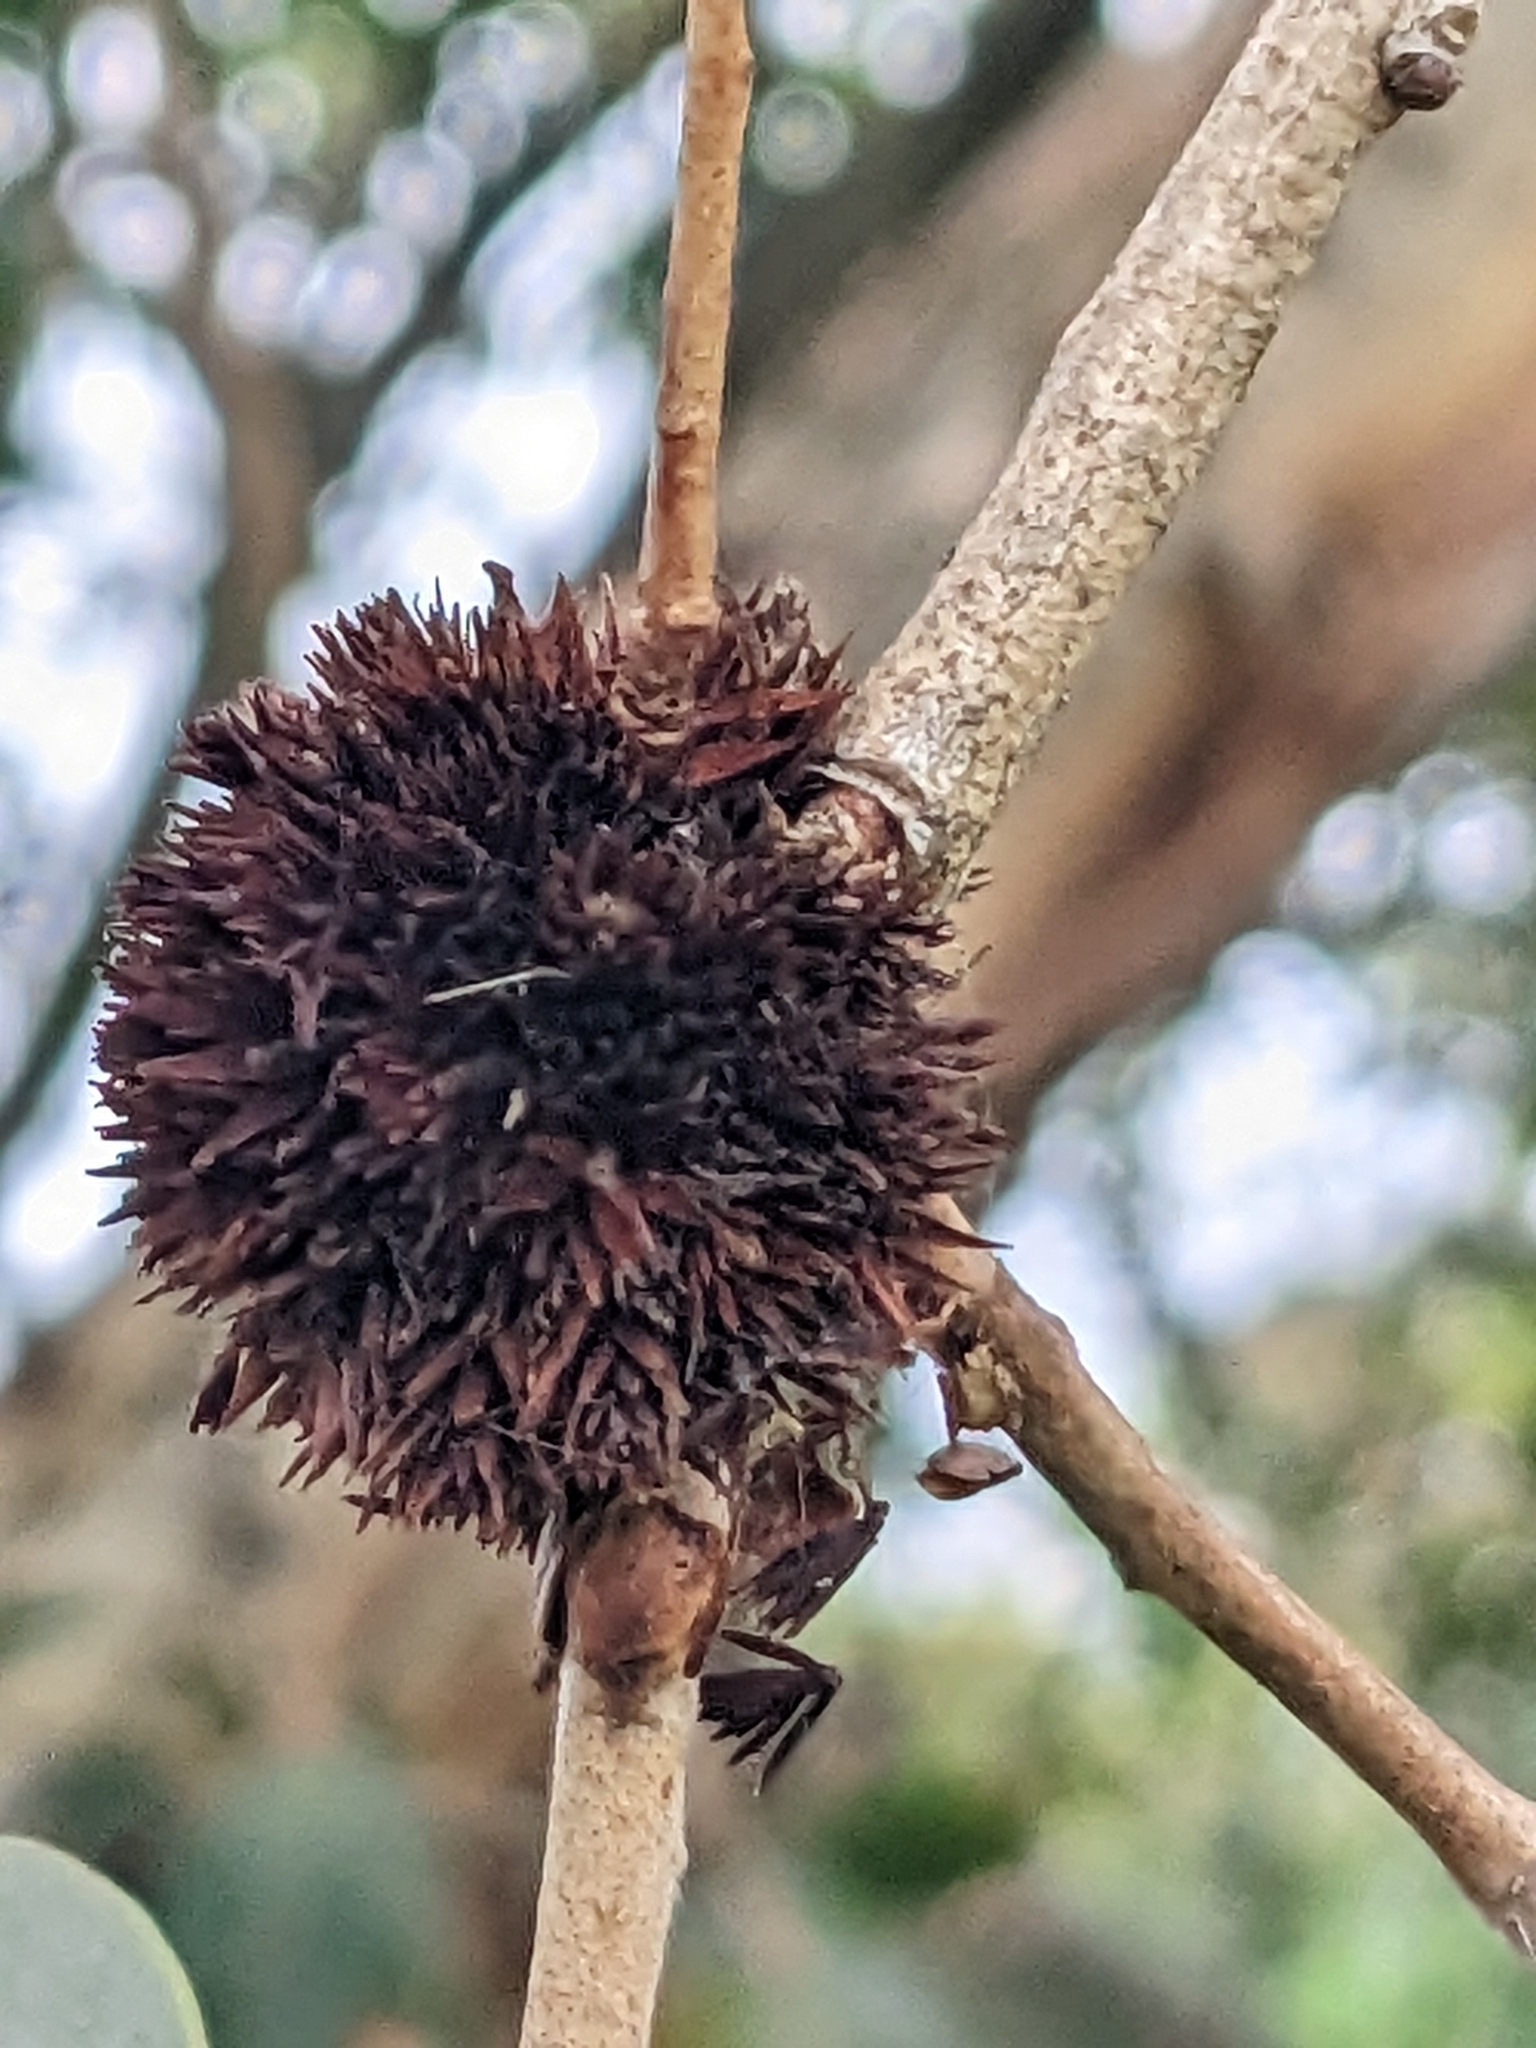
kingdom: Animalia
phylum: Arthropoda
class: Insecta
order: Hemiptera
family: Beesoniidae
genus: Beesonia
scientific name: Beesonia ferrugineus
